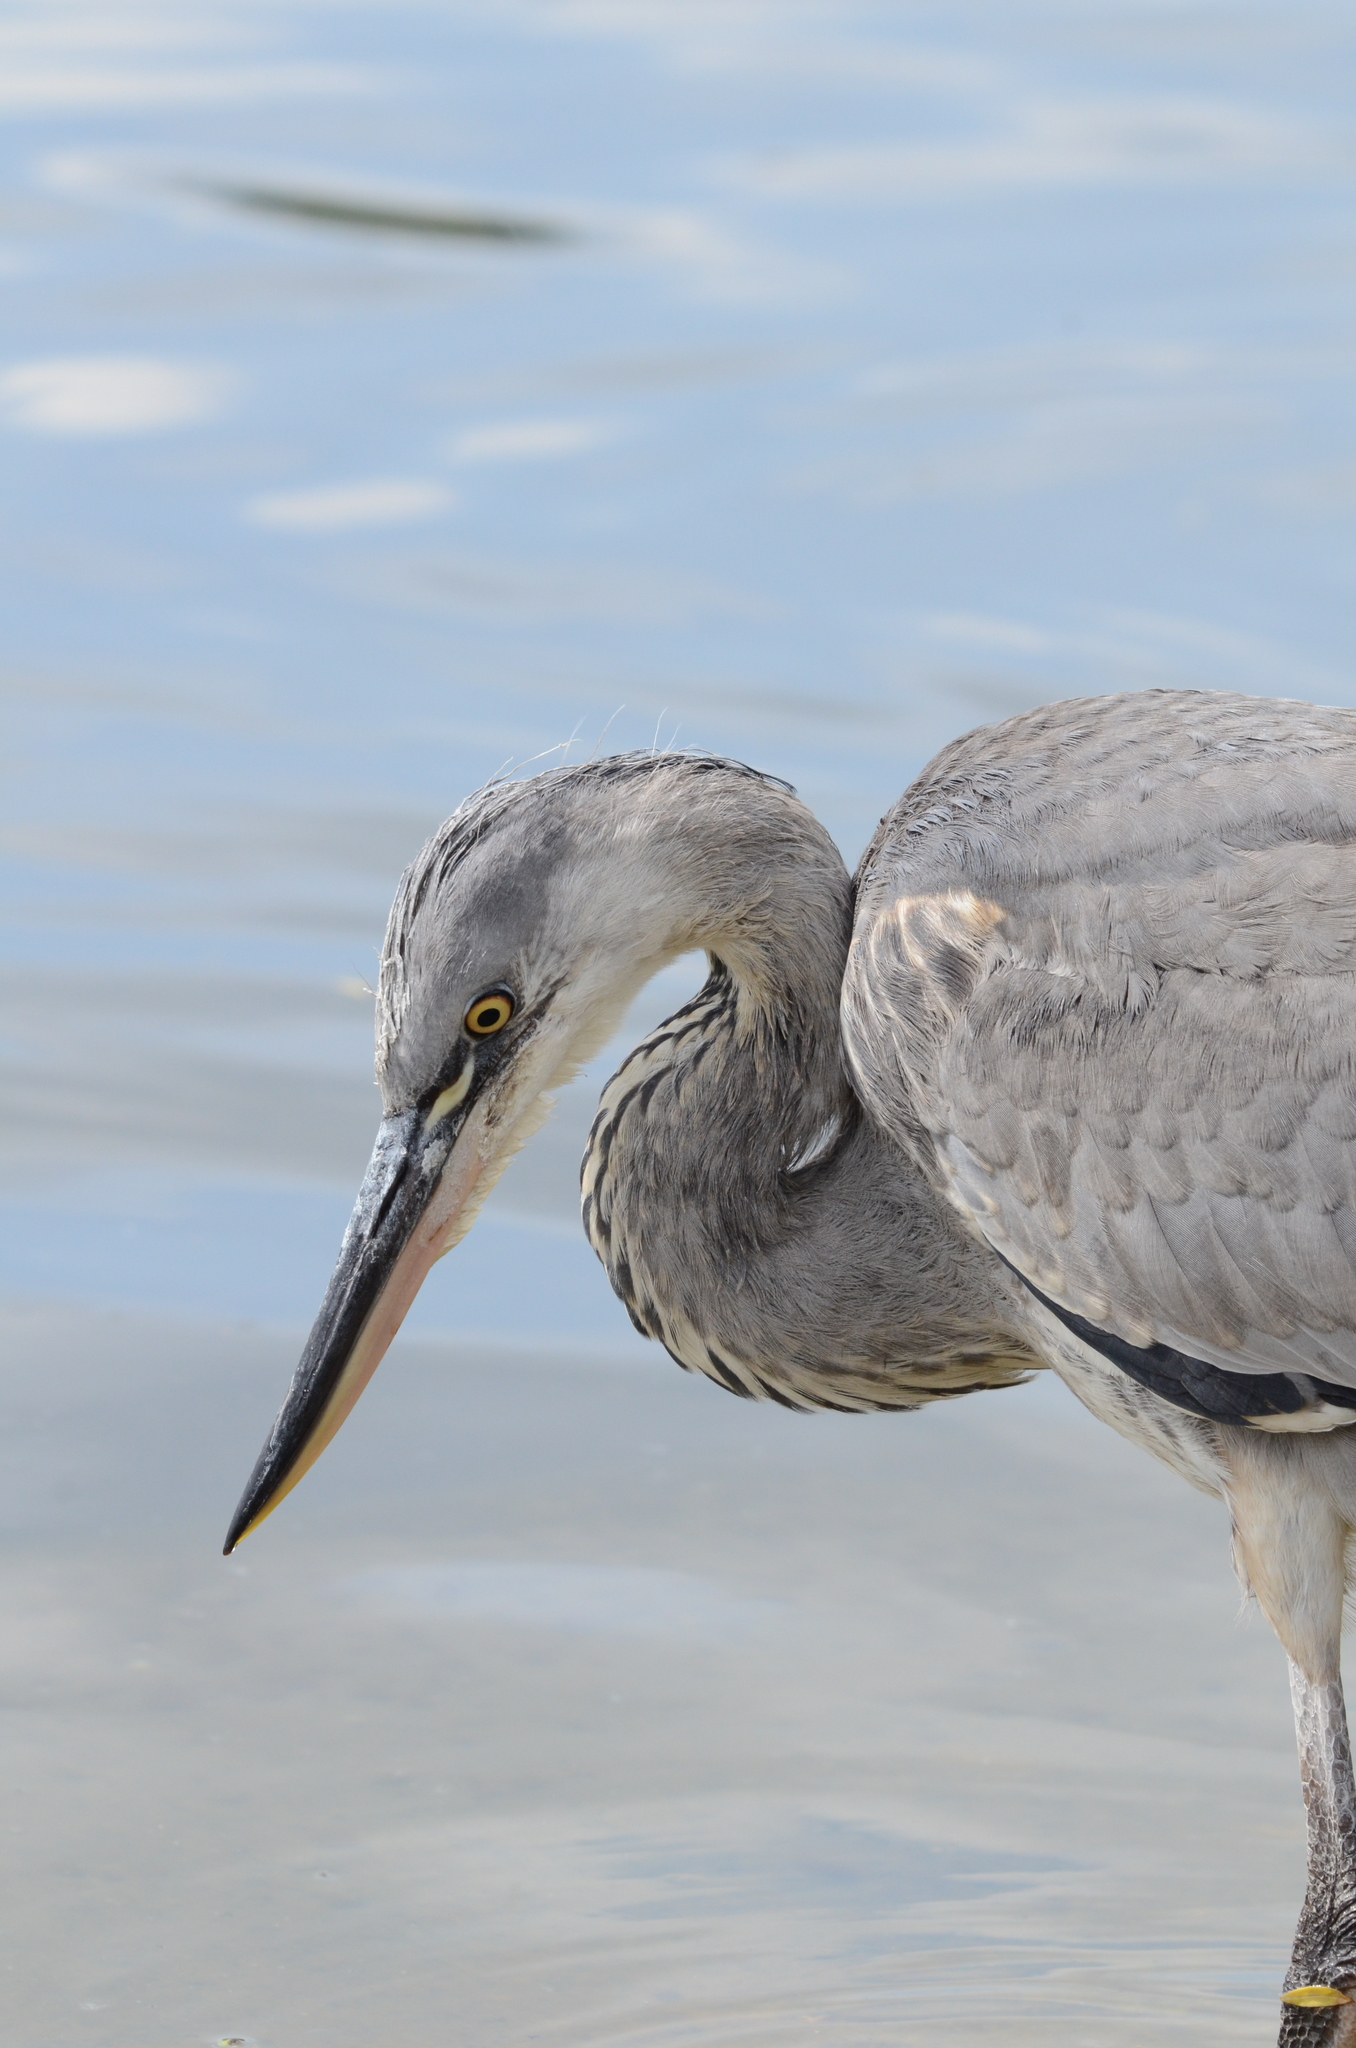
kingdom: Animalia
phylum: Chordata
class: Aves
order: Pelecaniformes
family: Ardeidae
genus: Ardea
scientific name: Ardea cinerea
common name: Grey heron
